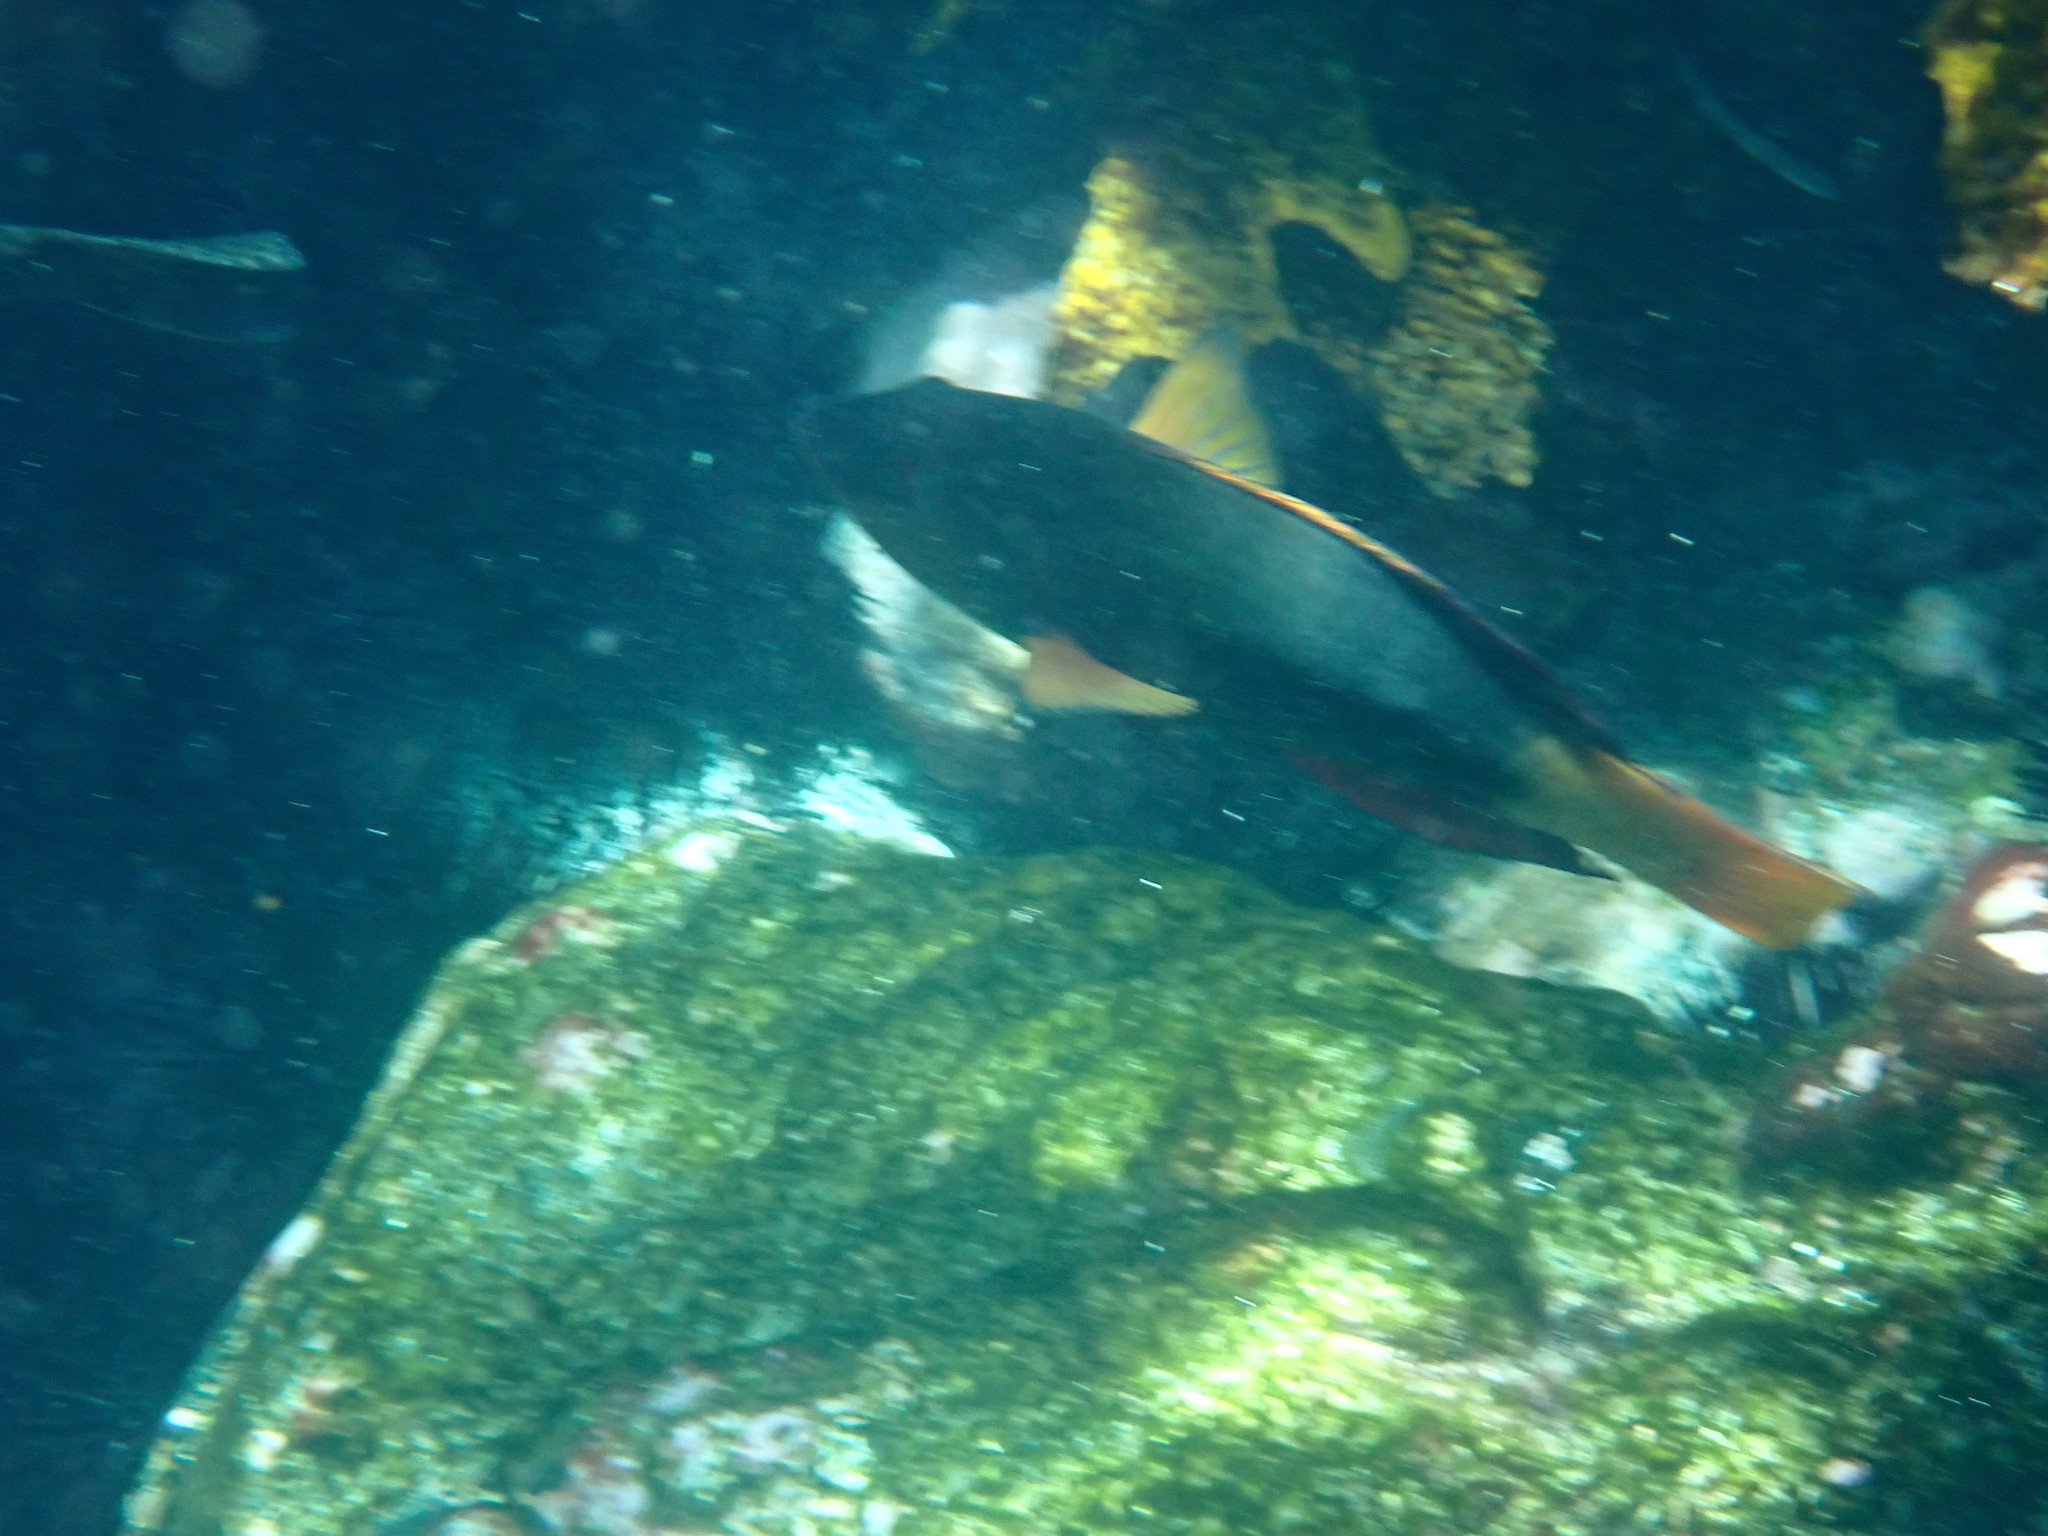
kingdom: Animalia
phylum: Chordata
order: Perciformes
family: Labridae
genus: Notolabrus
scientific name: Notolabrus gymnogenis
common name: Crimson banded wrasse
